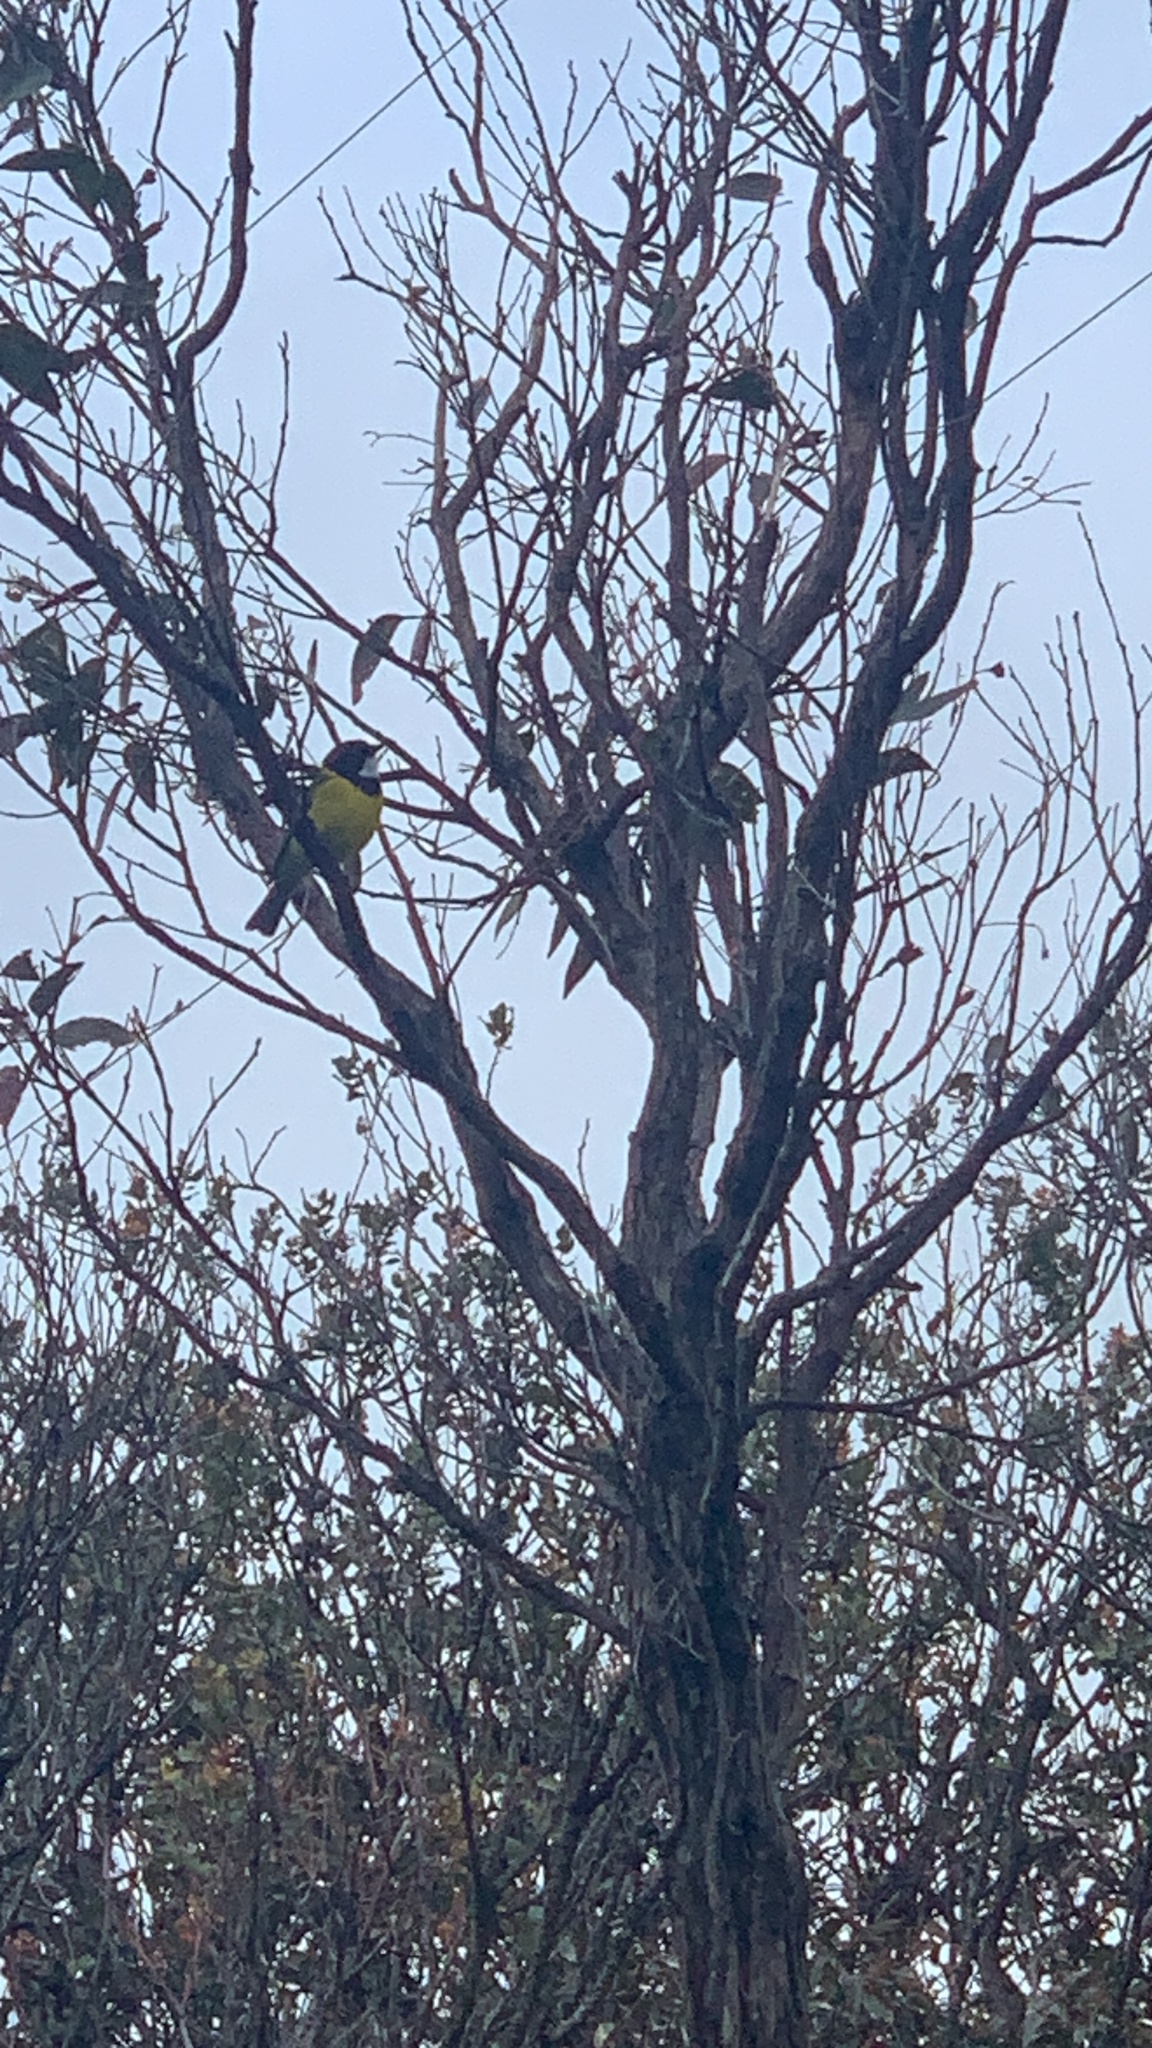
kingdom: Animalia
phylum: Chordata
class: Aves
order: Passeriformes
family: Pachycephalidae
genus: Pachycephala
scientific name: Pachycephala fuliginosa
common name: Western whistler
